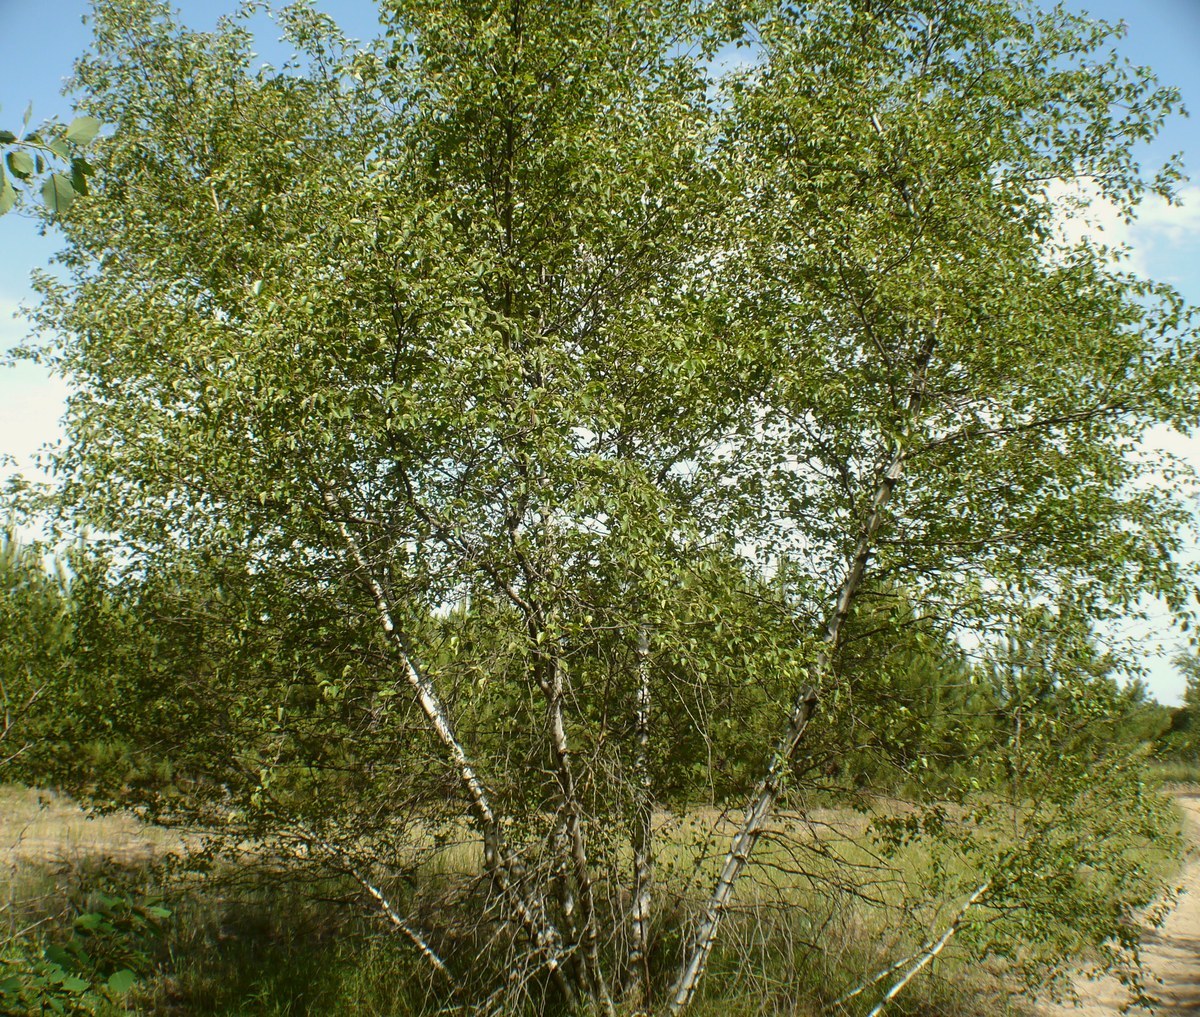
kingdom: Plantae
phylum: Tracheophyta
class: Magnoliopsida
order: Fagales
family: Betulaceae
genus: Betula
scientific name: Betula pubescens
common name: Downy birch
